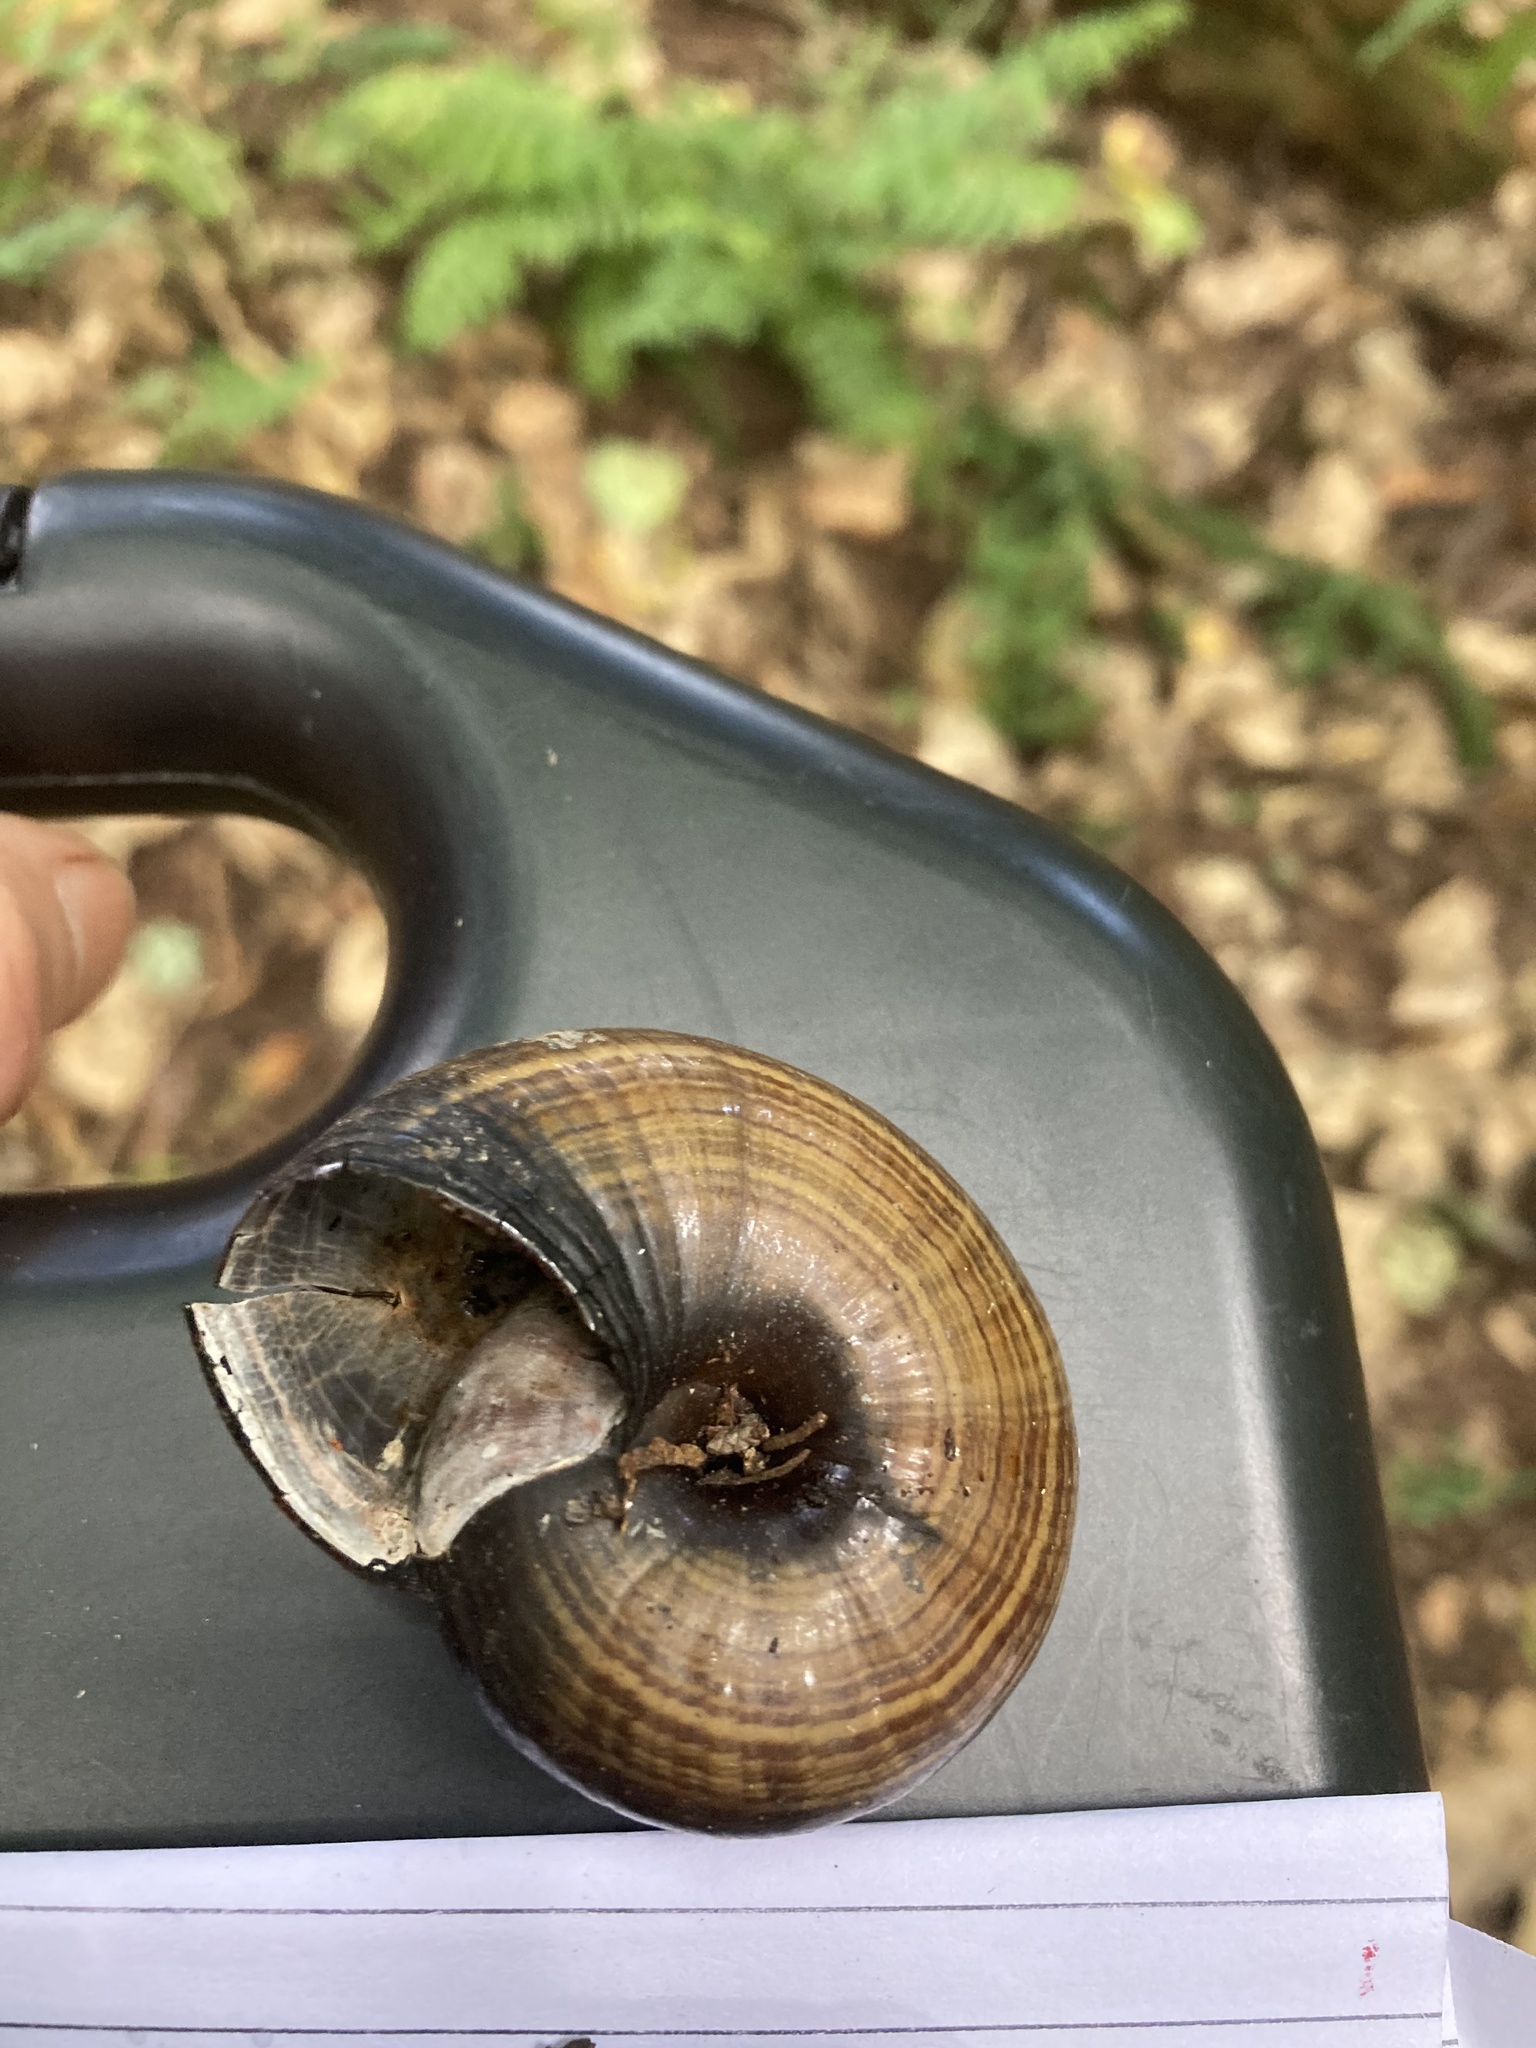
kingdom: Animalia
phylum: Mollusca
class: Gastropoda
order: Stylommatophora
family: Rhytididae
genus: Powelliphanta
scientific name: Powelliphanta traversi
